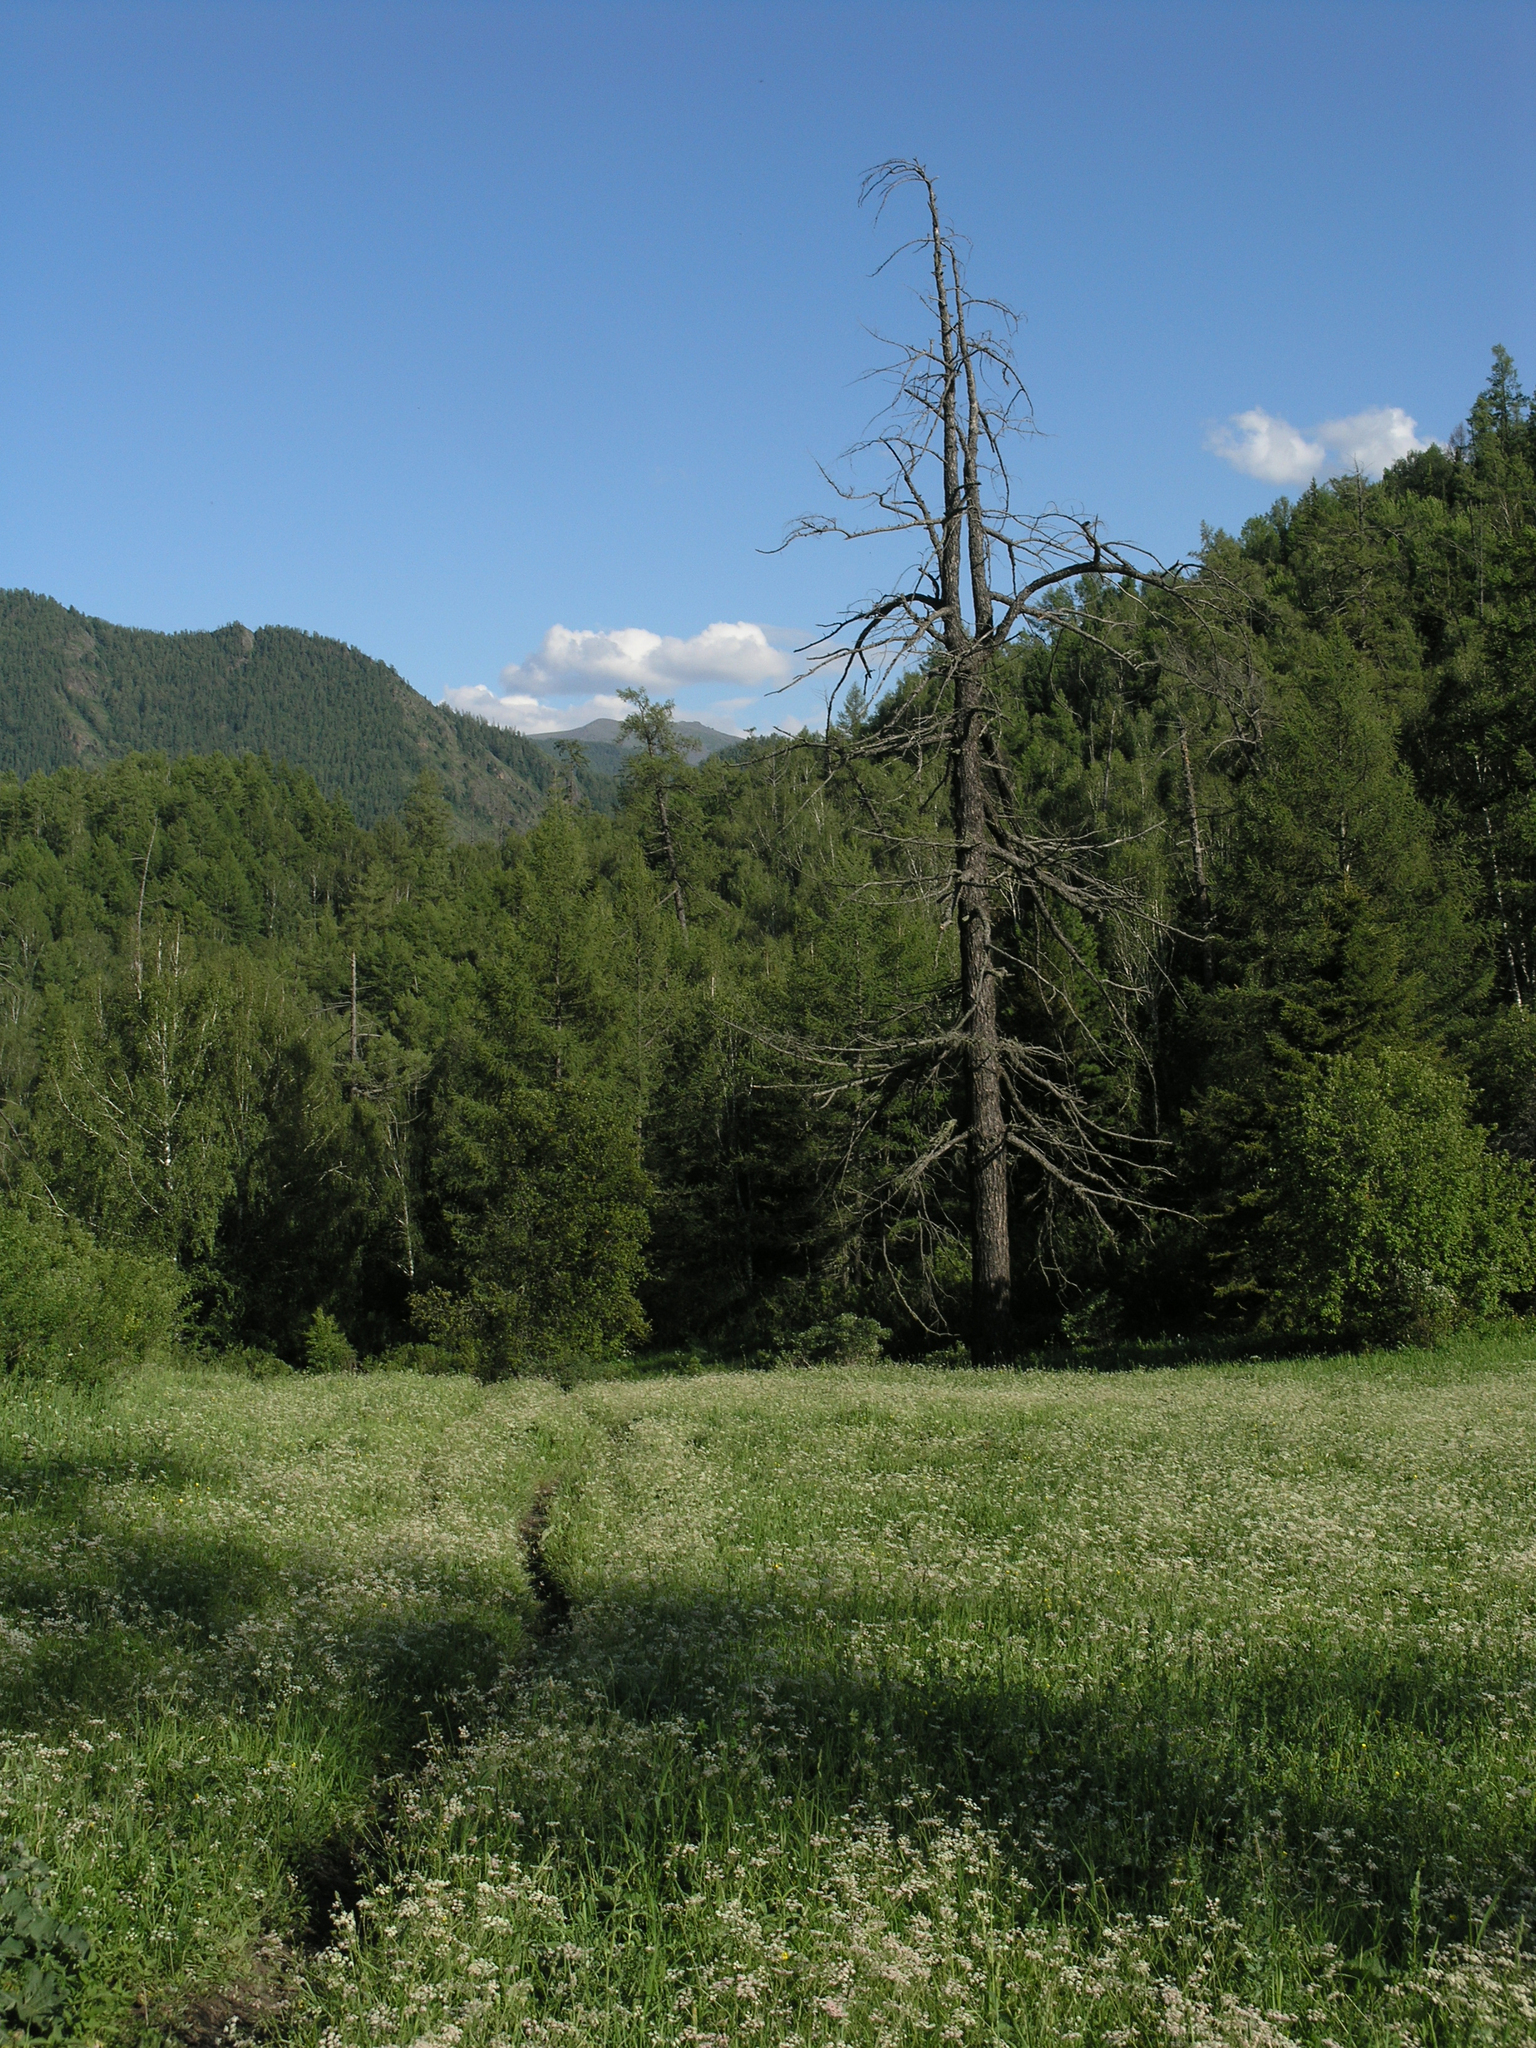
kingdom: Plantae
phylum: Tracheophyta
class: Magnoliopsida
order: Apiales
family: Apiaceae
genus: Carum
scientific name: Carum carvi
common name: Caraway
